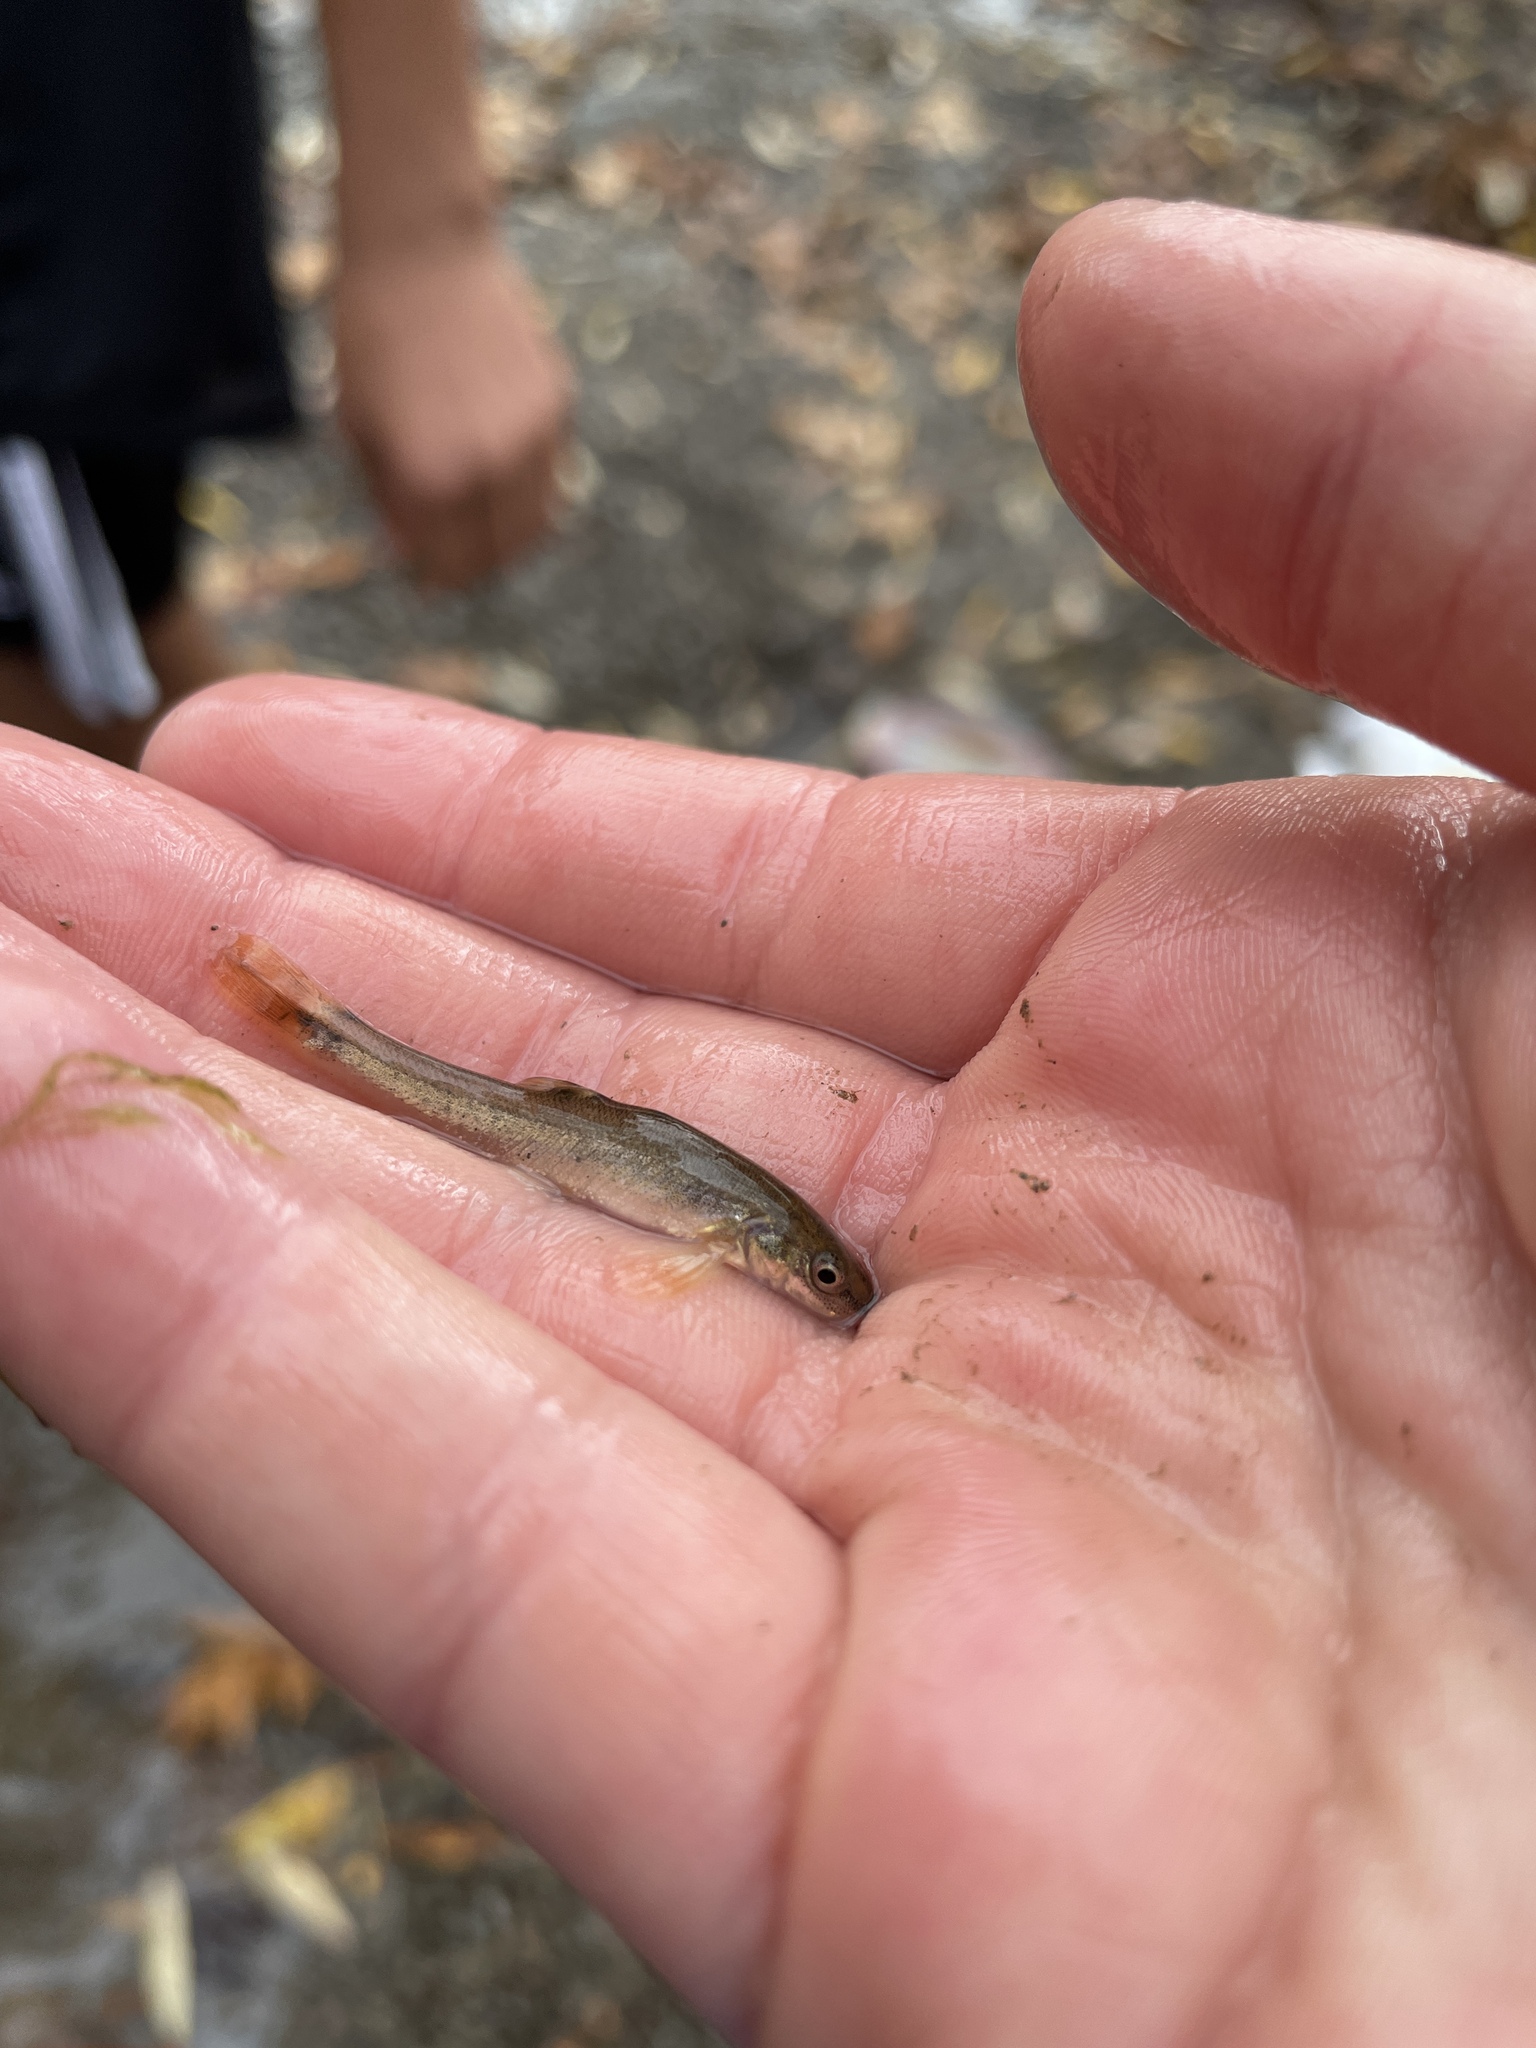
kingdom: Animalia
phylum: Chordata
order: Cypriniformes
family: Cyprinidae
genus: Rhinichthys
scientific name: Rhinichthys cataractae
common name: Longnose dace
